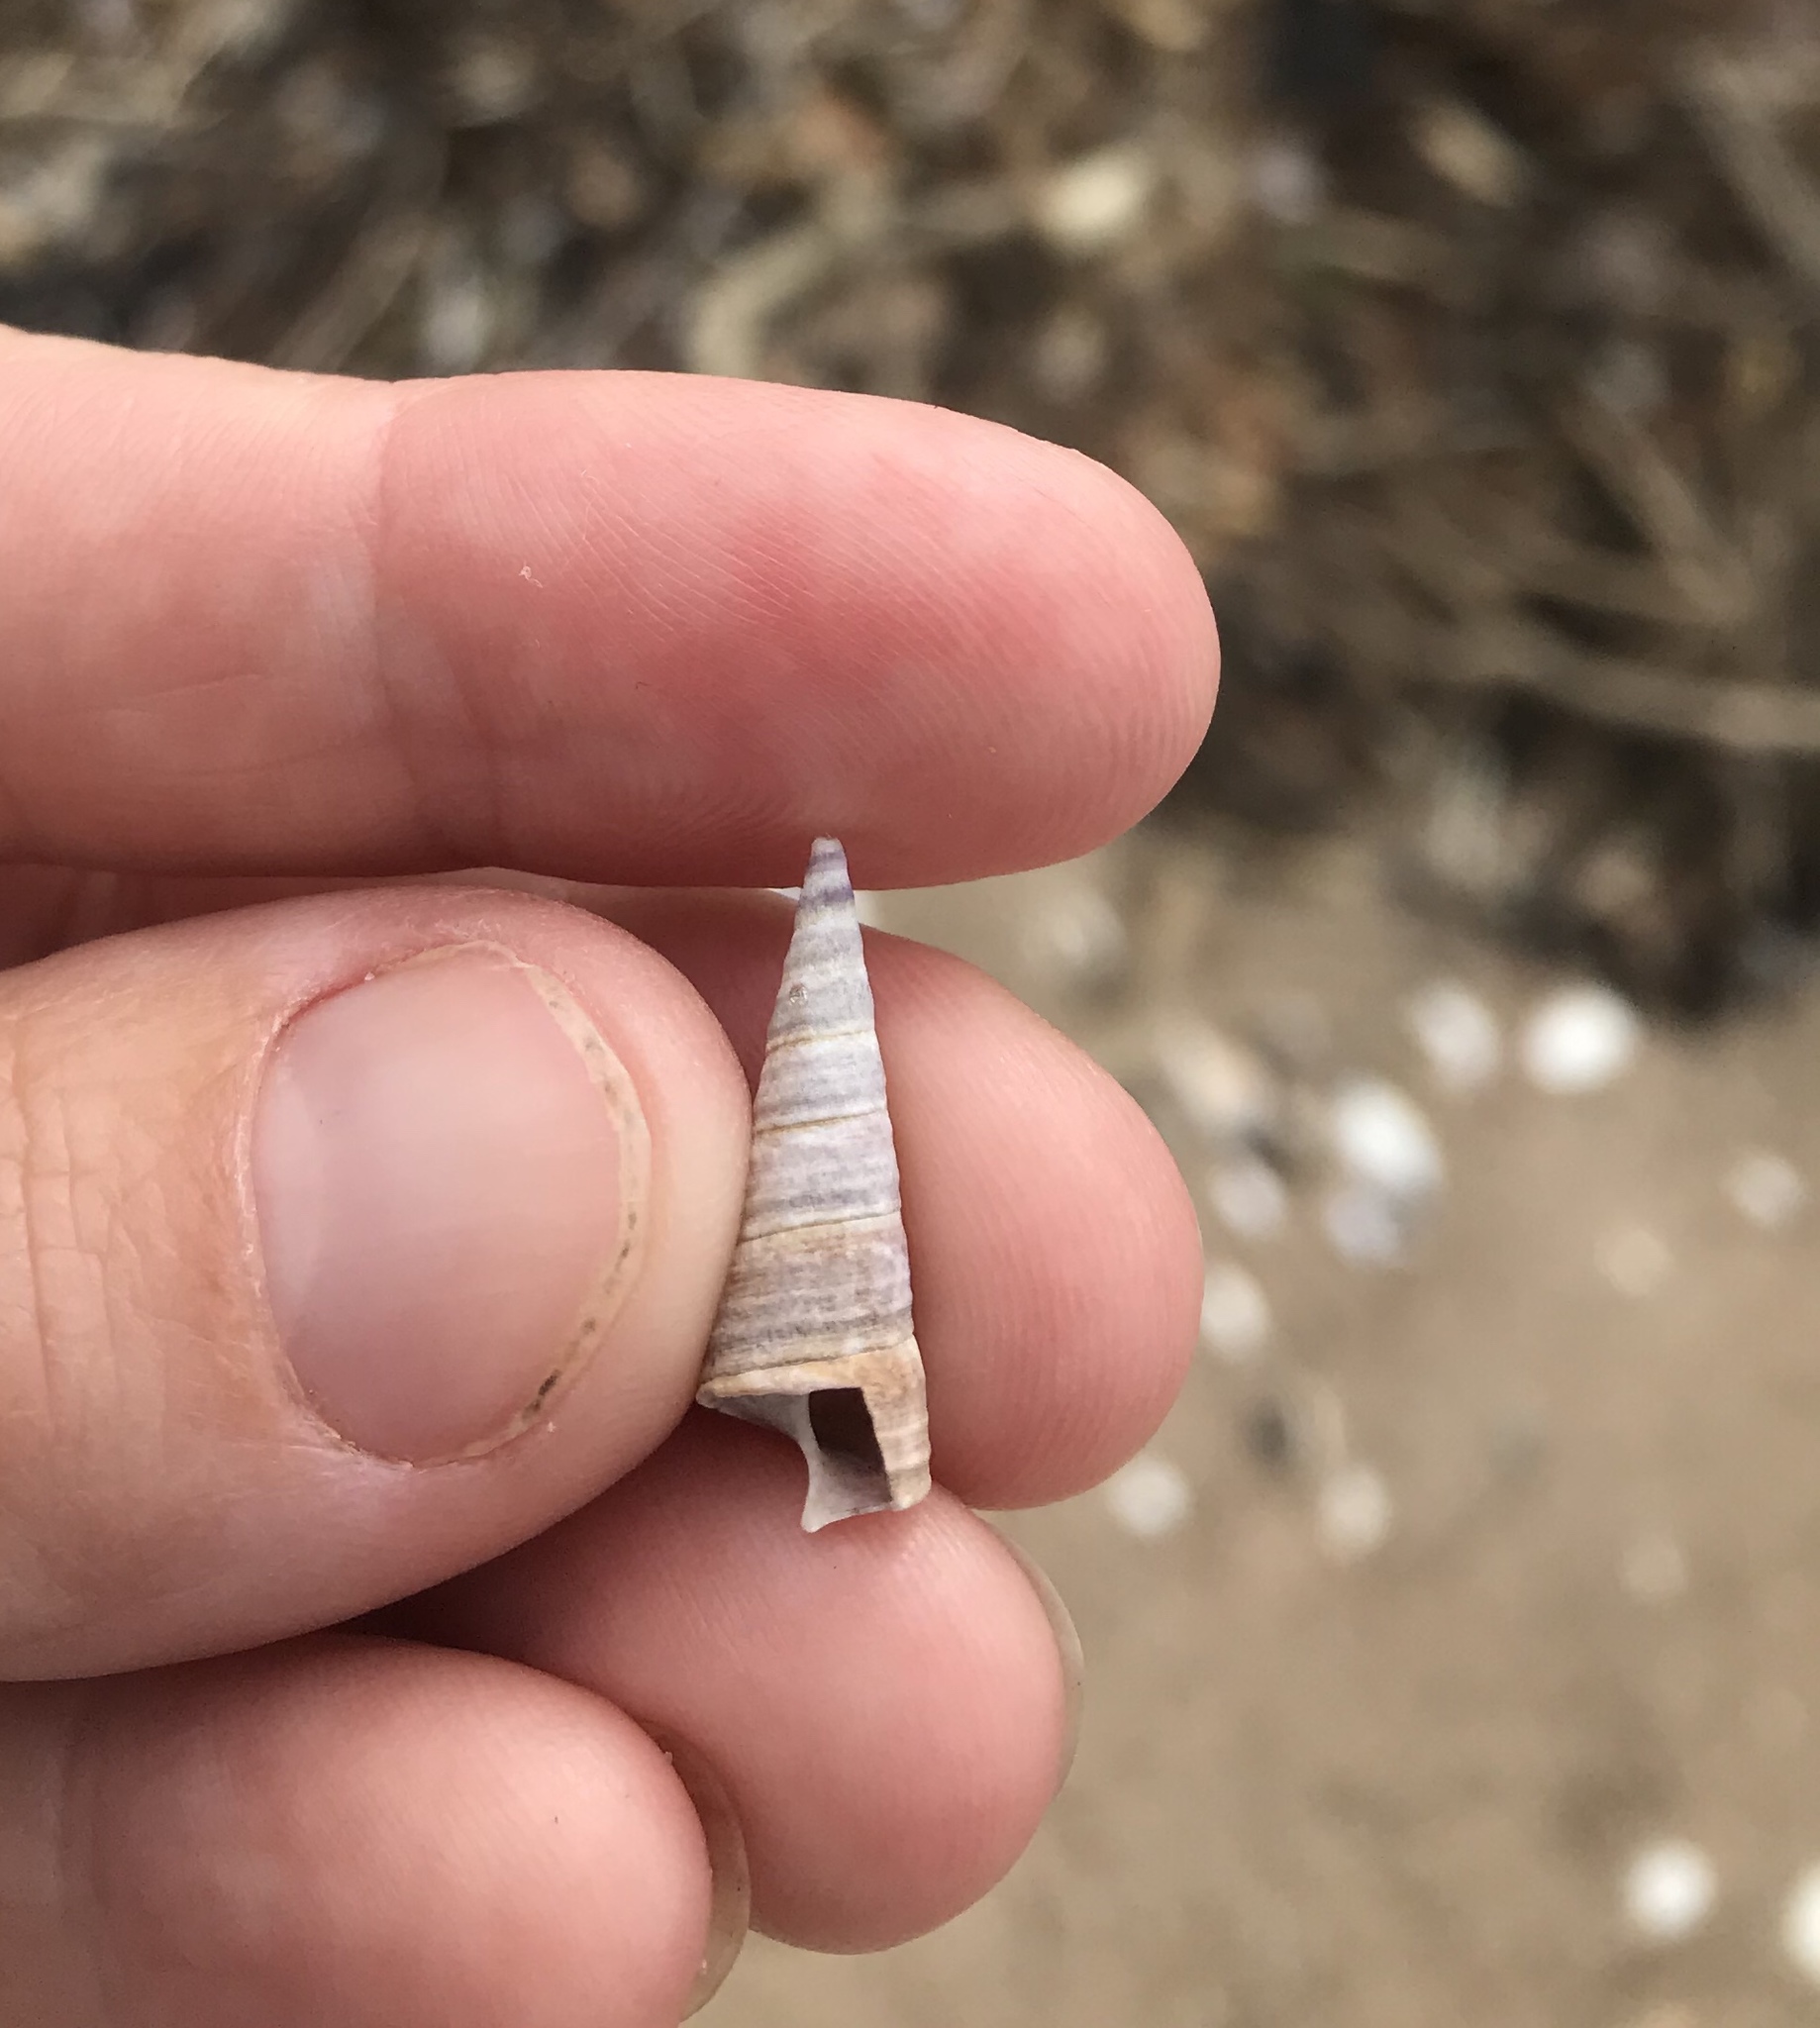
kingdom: Animalia
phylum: Mollusca
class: Gastropoda
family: Turritellidae
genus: Maoricolpus
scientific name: Maoricolpus roseus
